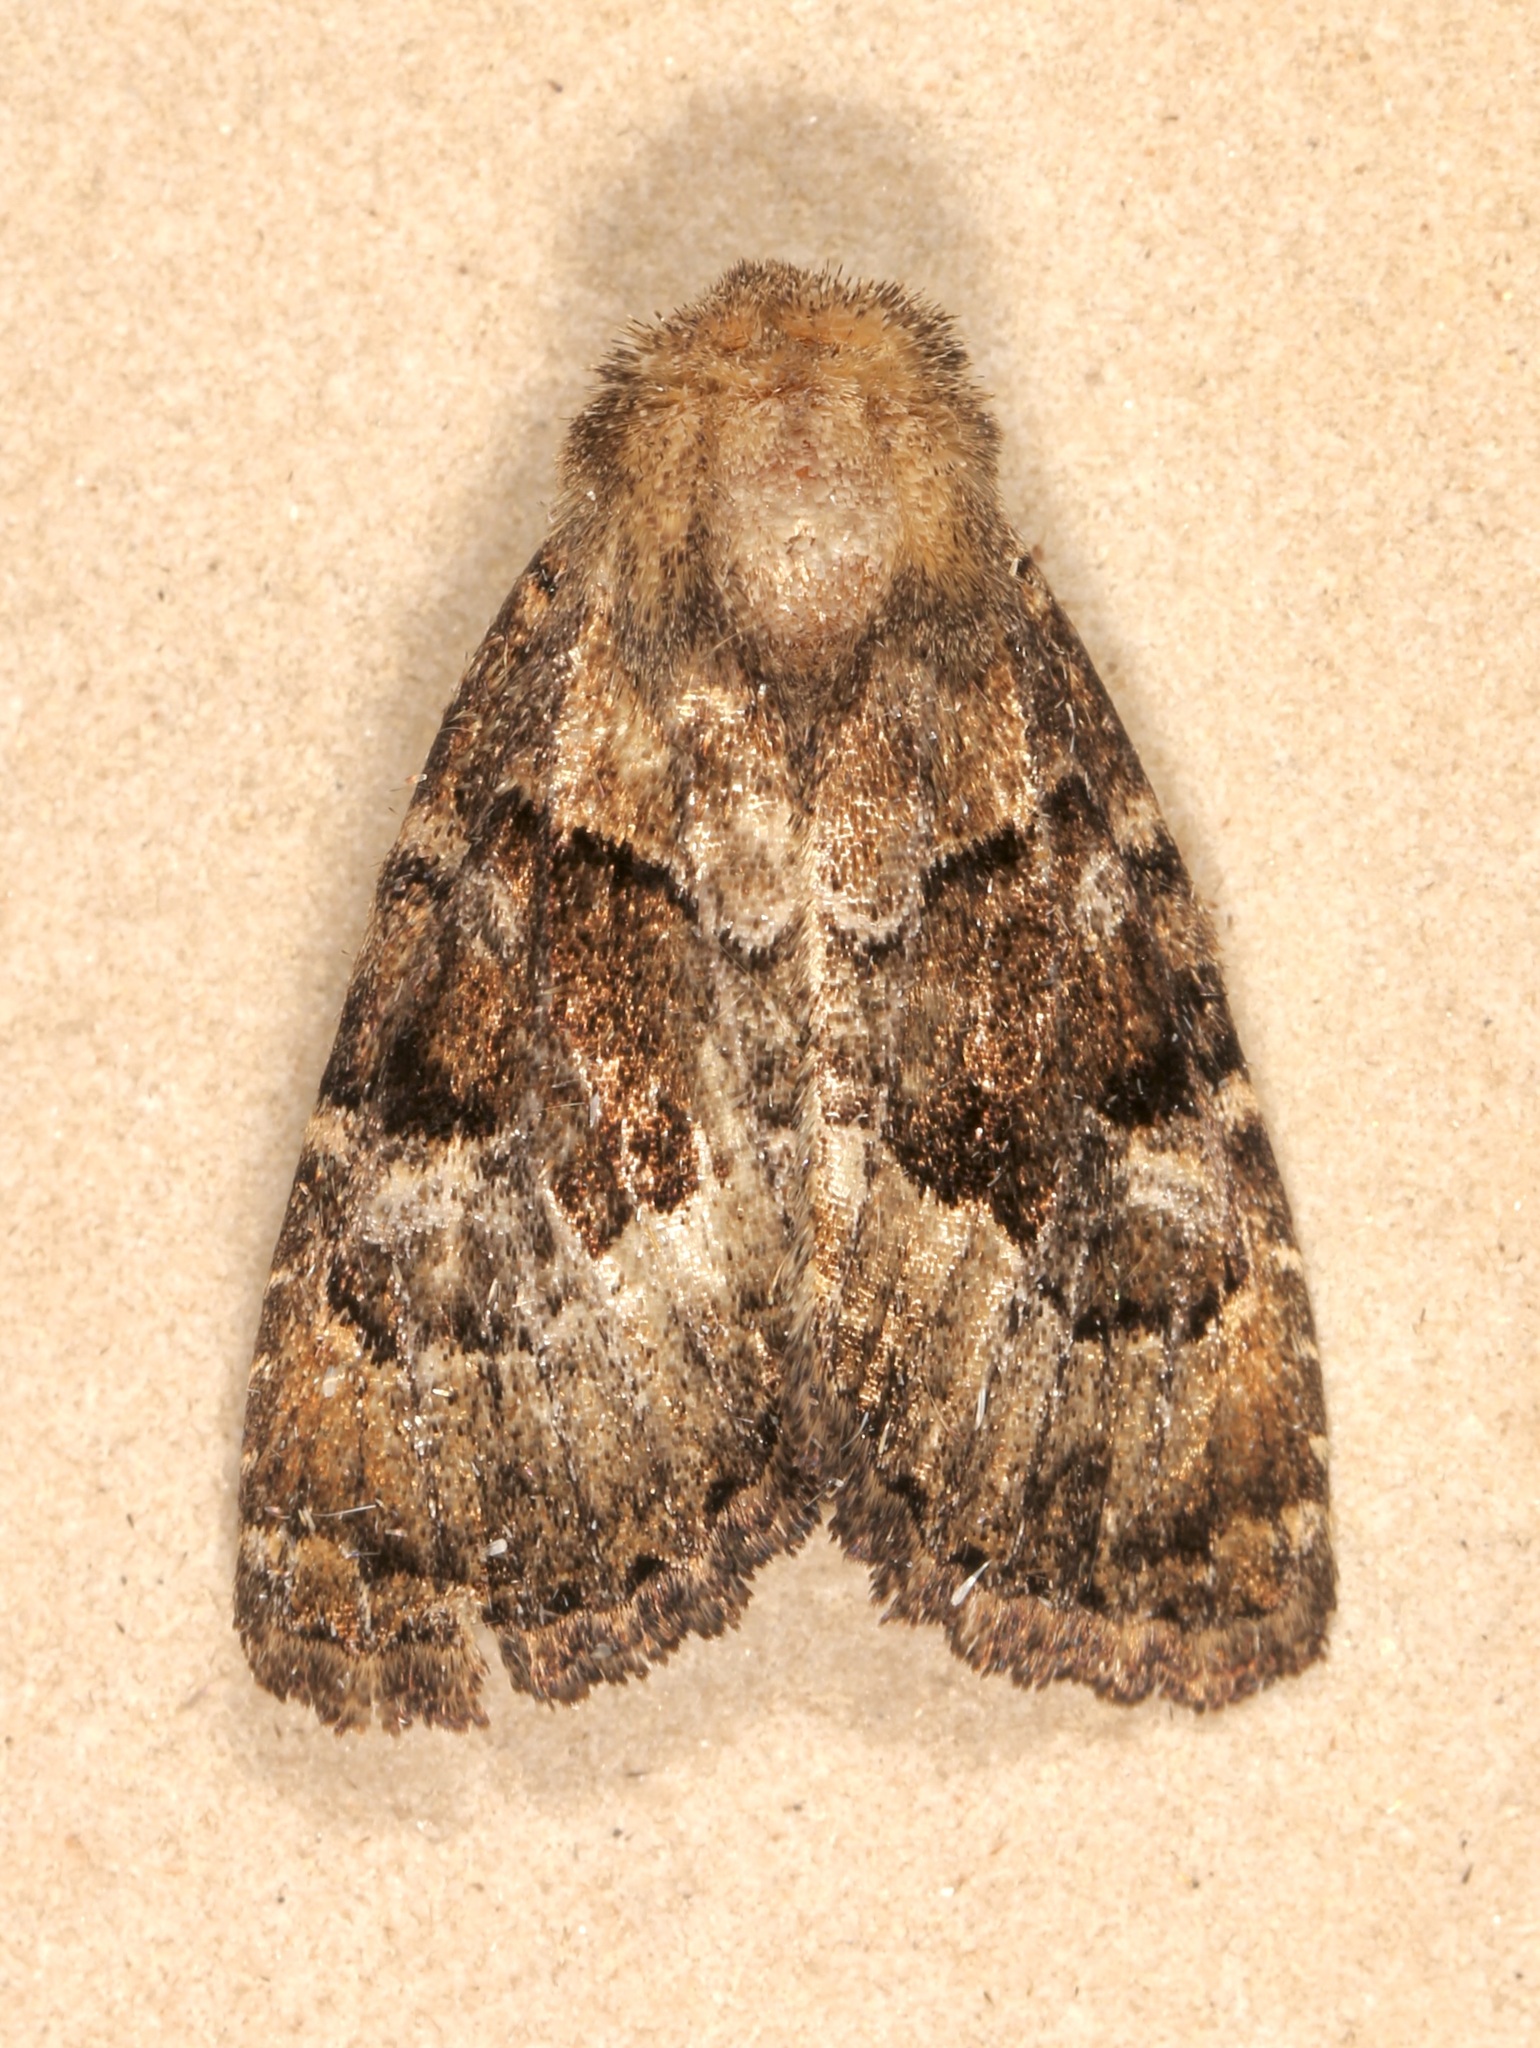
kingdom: Animalia
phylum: Arthropoda
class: Insecta
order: Lepidoptera
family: Noctuidae
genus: Euamiana
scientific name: Euamiana dissimilis
